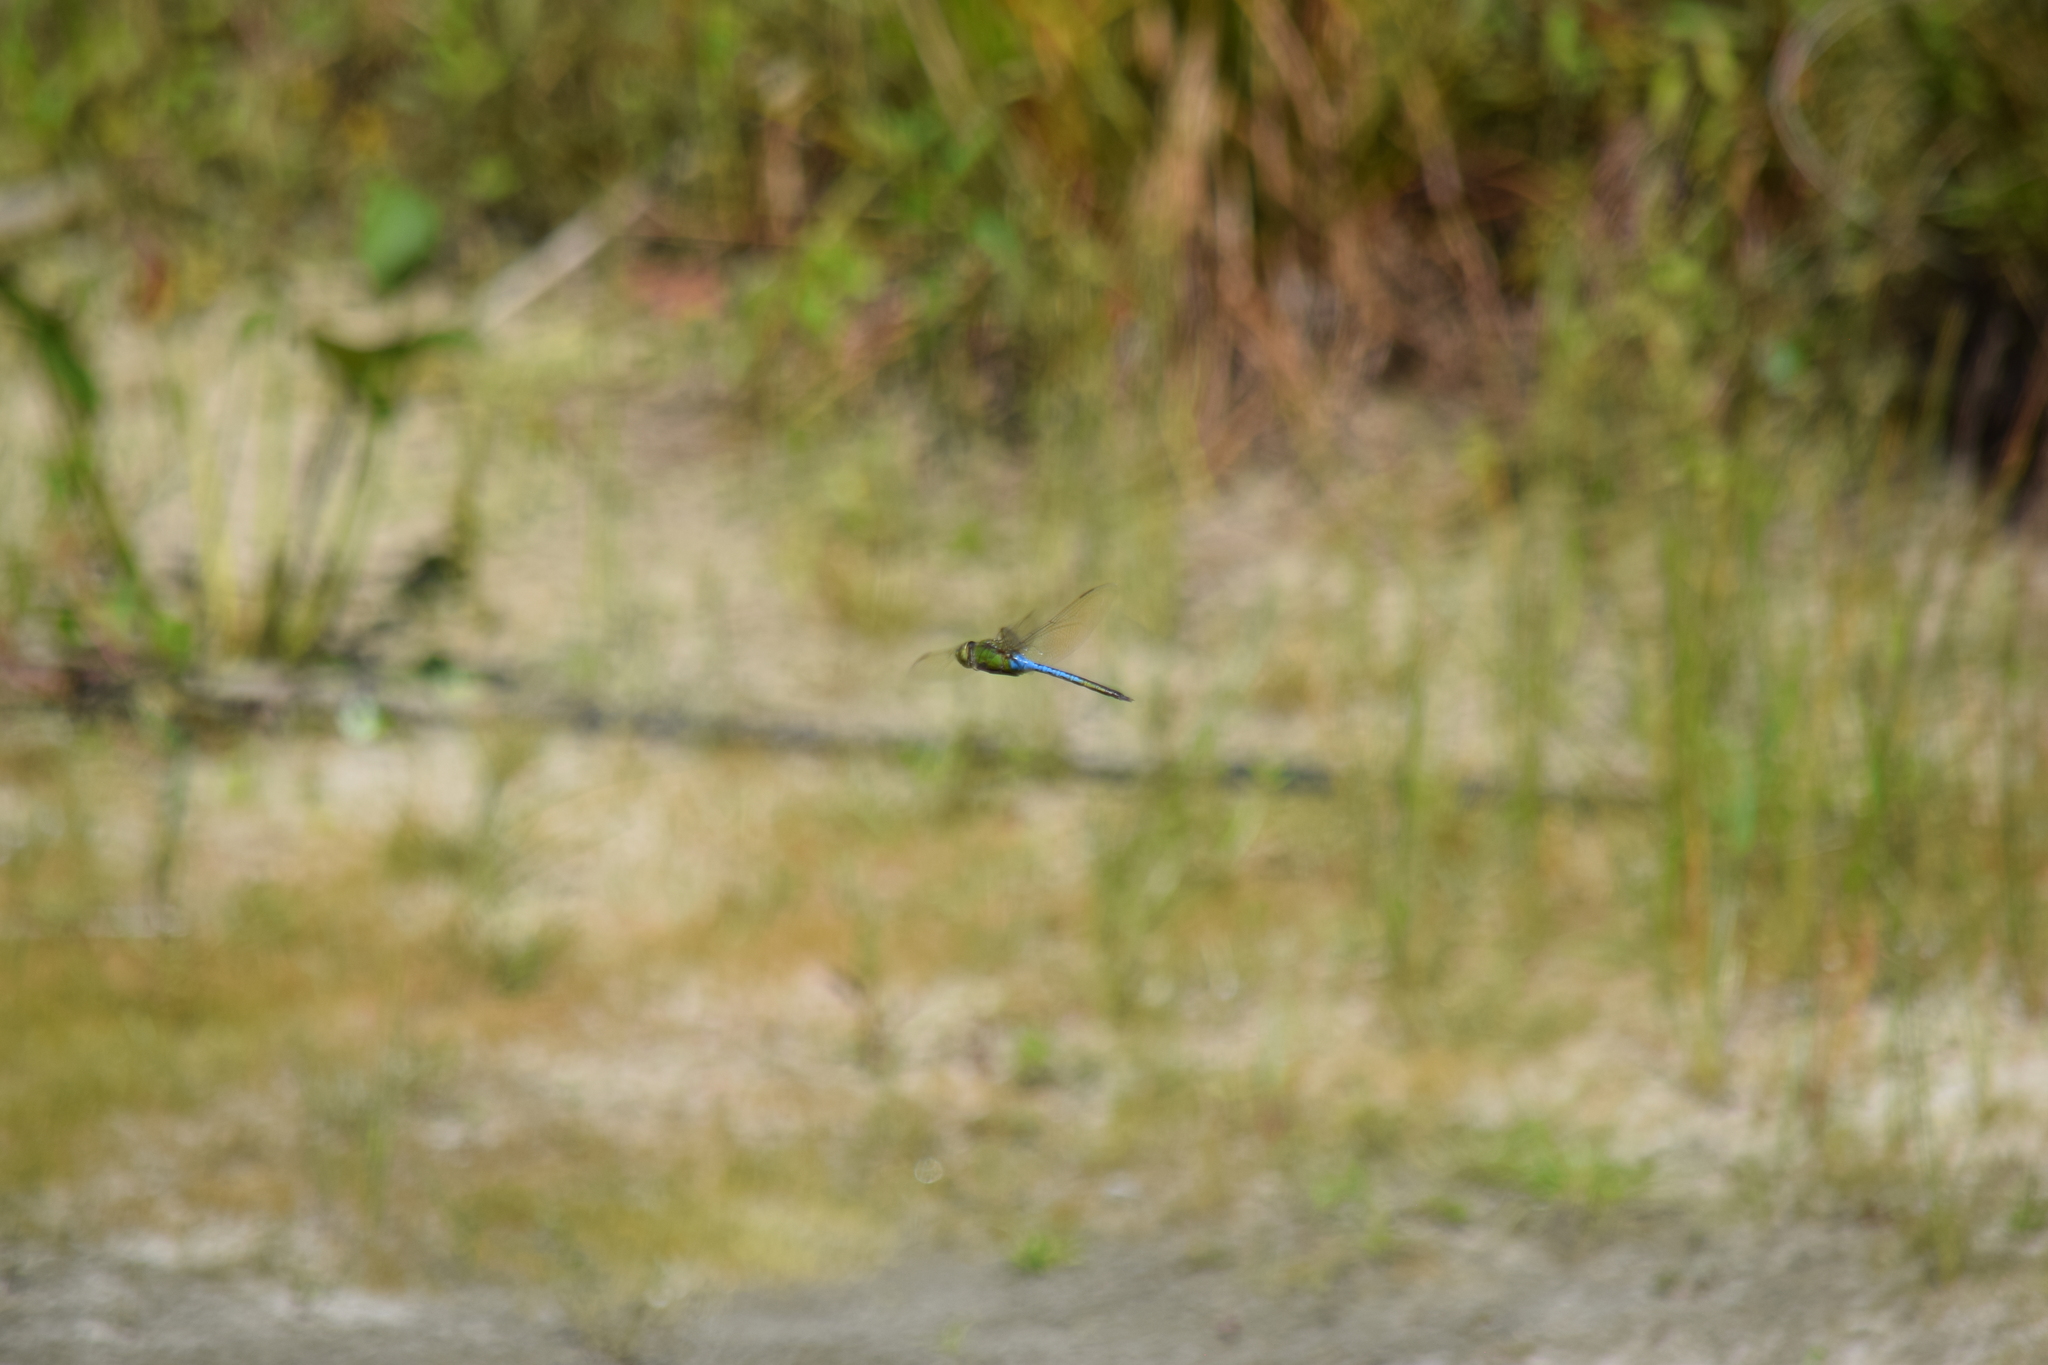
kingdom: Animalia
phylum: Arthropoda
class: Insecta
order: Odonata
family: Aeshnidae
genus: Anax
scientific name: Anax junius
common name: Common green darner
